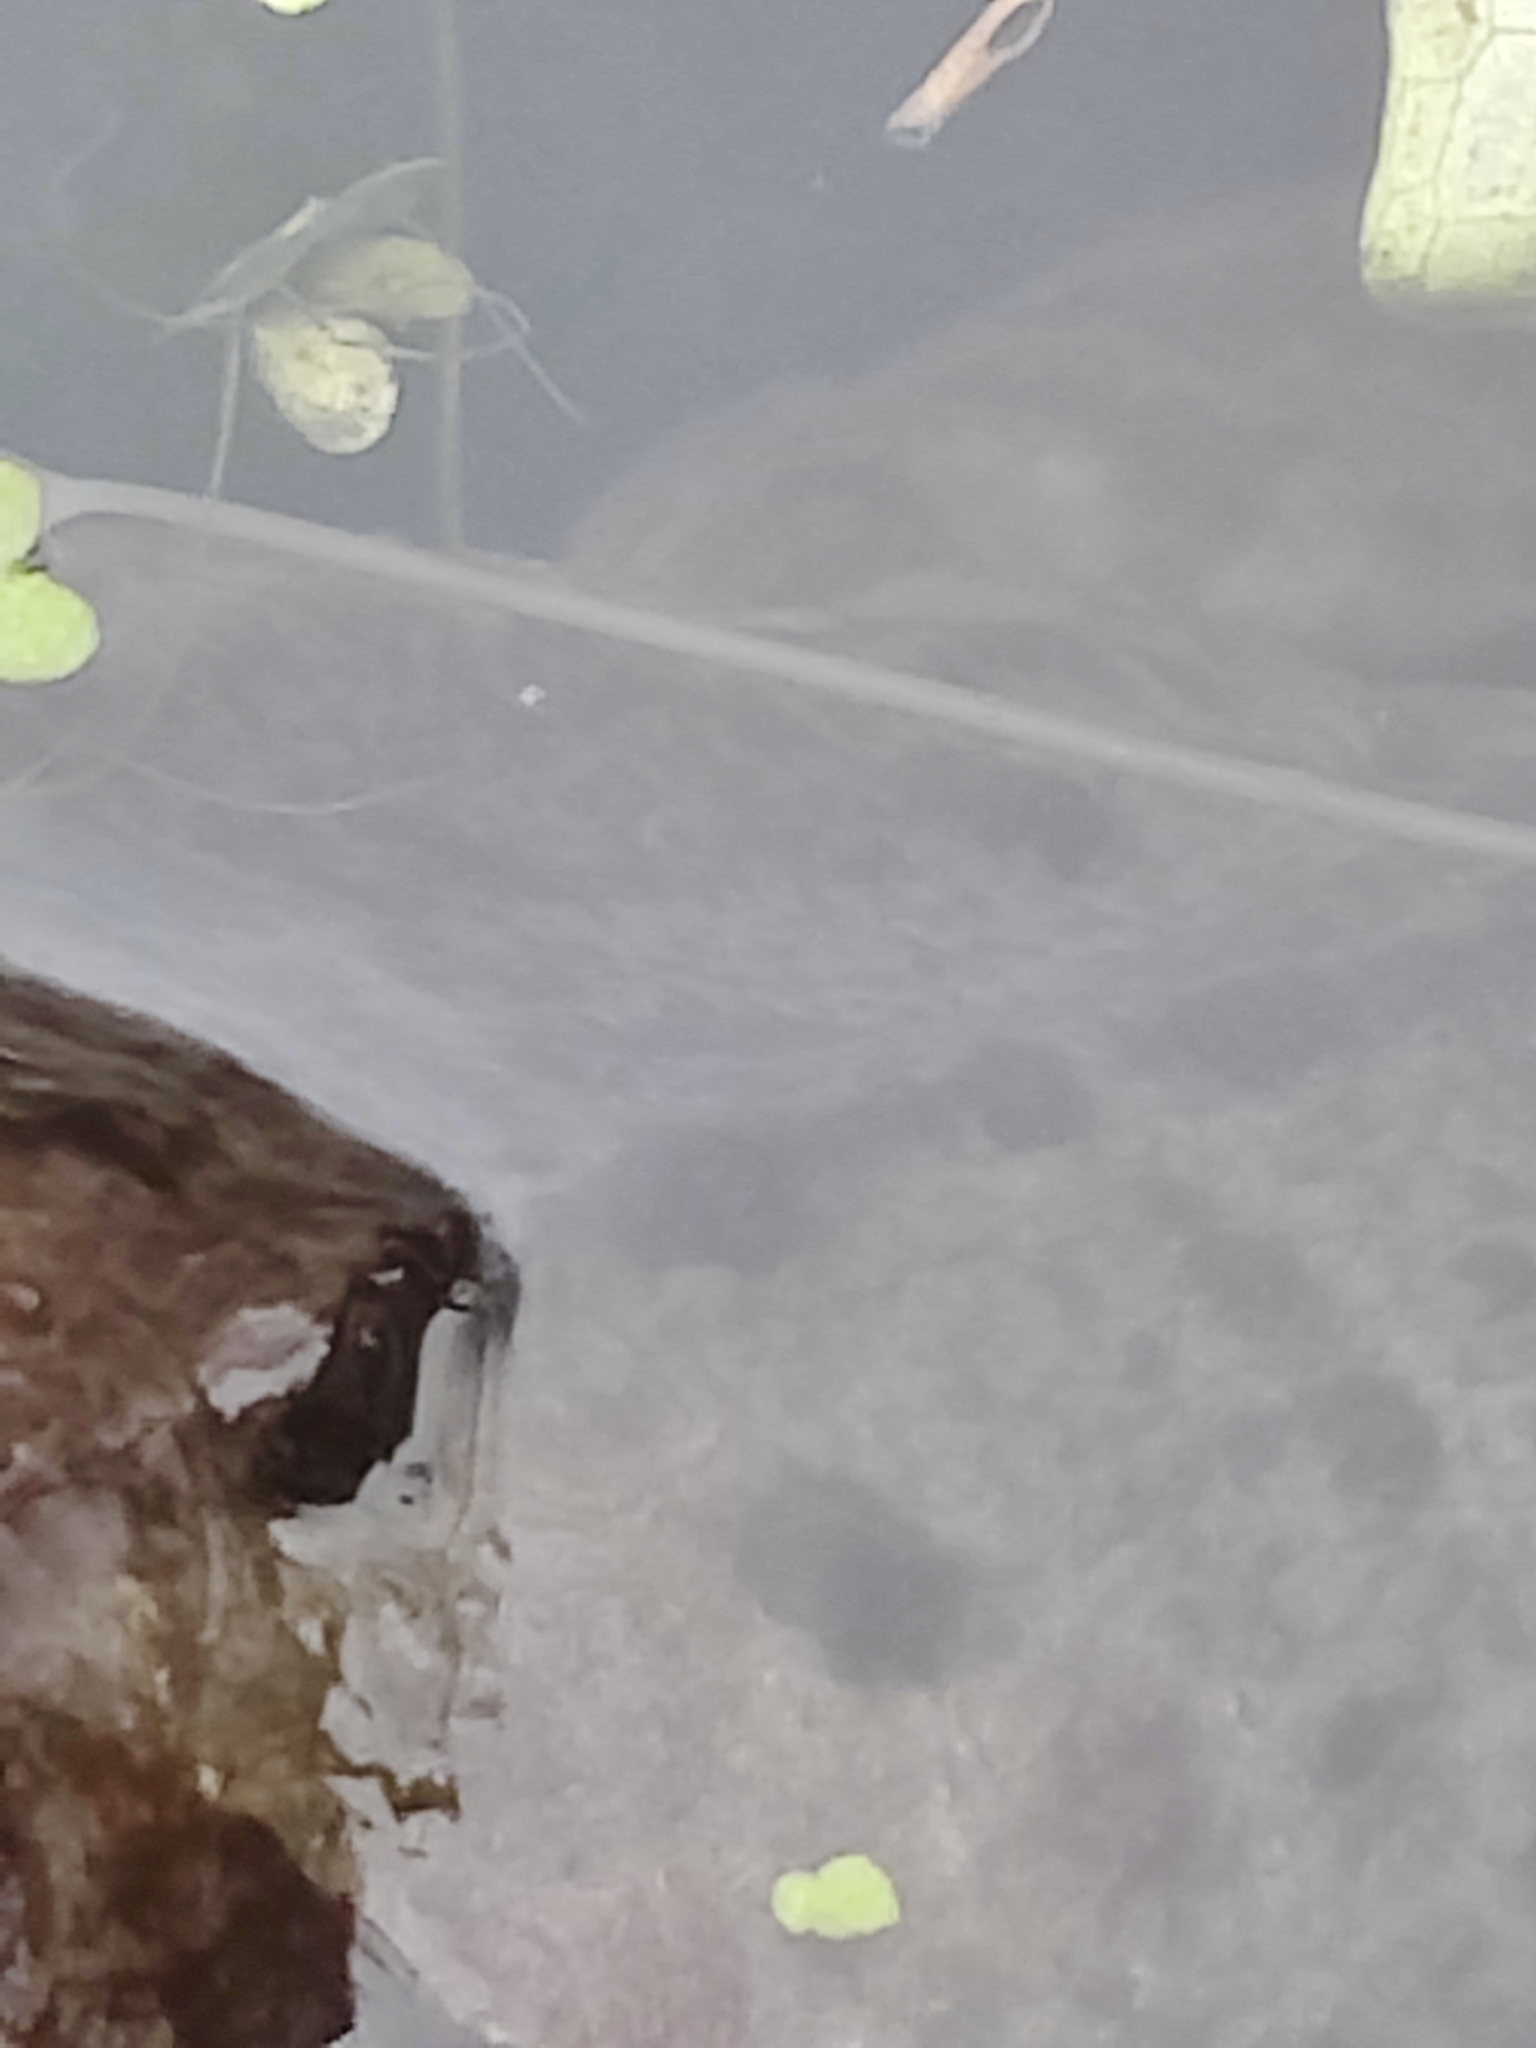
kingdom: Animalia
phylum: Chordata
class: Amphibia
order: Anura
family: Ranidae
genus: Rana
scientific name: Rana temporaria
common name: Common frog
